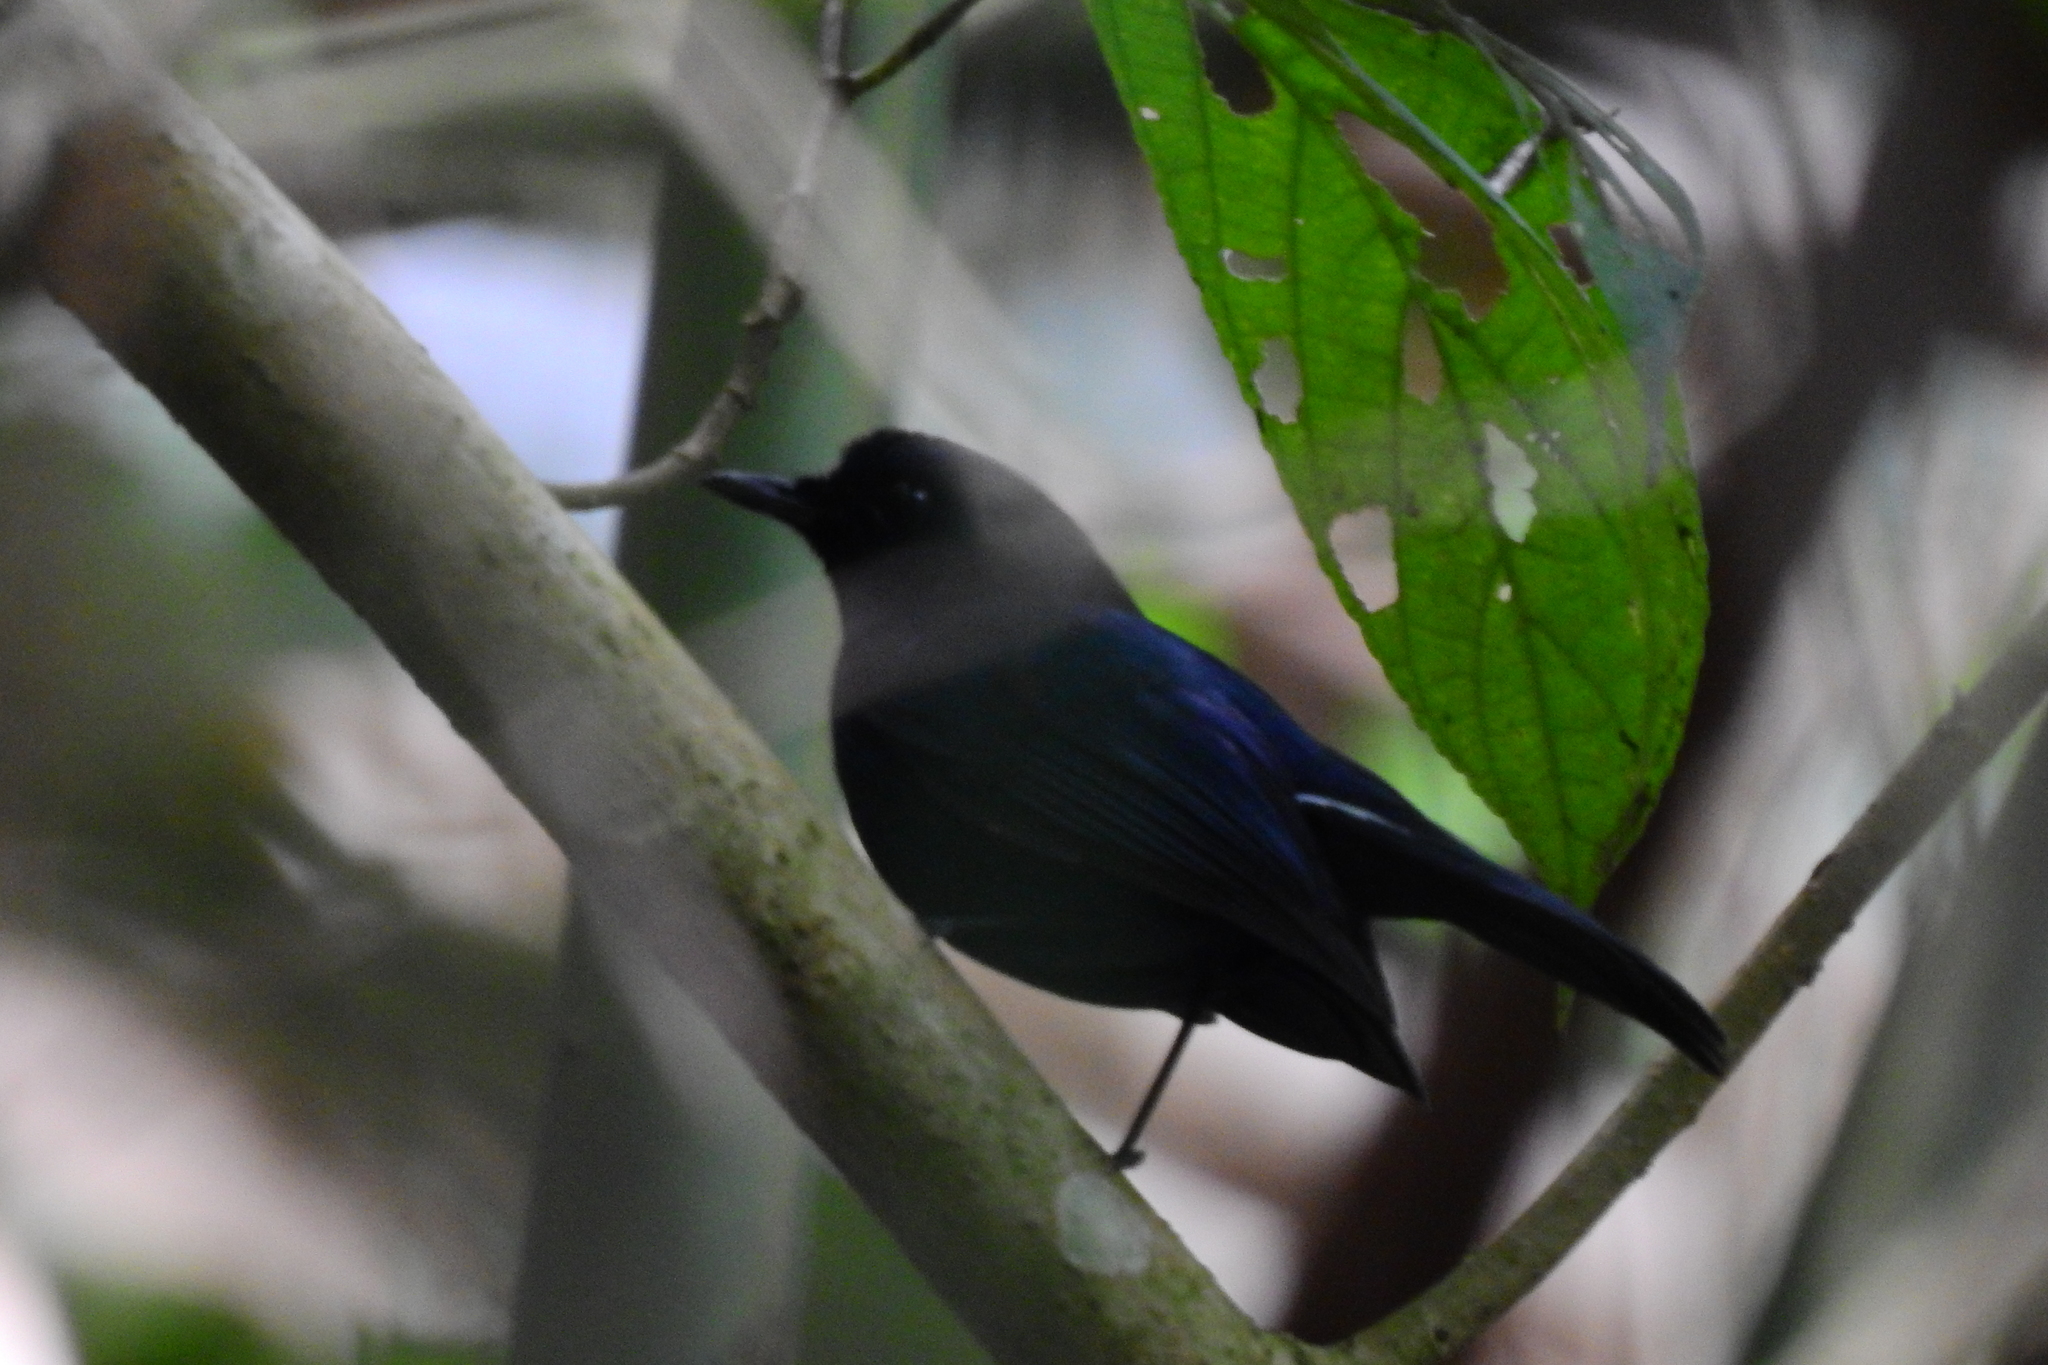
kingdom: Animalia
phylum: Chordata
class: Aves
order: Passeriformes
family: Muscicapidae
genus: Myiomela
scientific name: Myiomela diana
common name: Sunda robin
